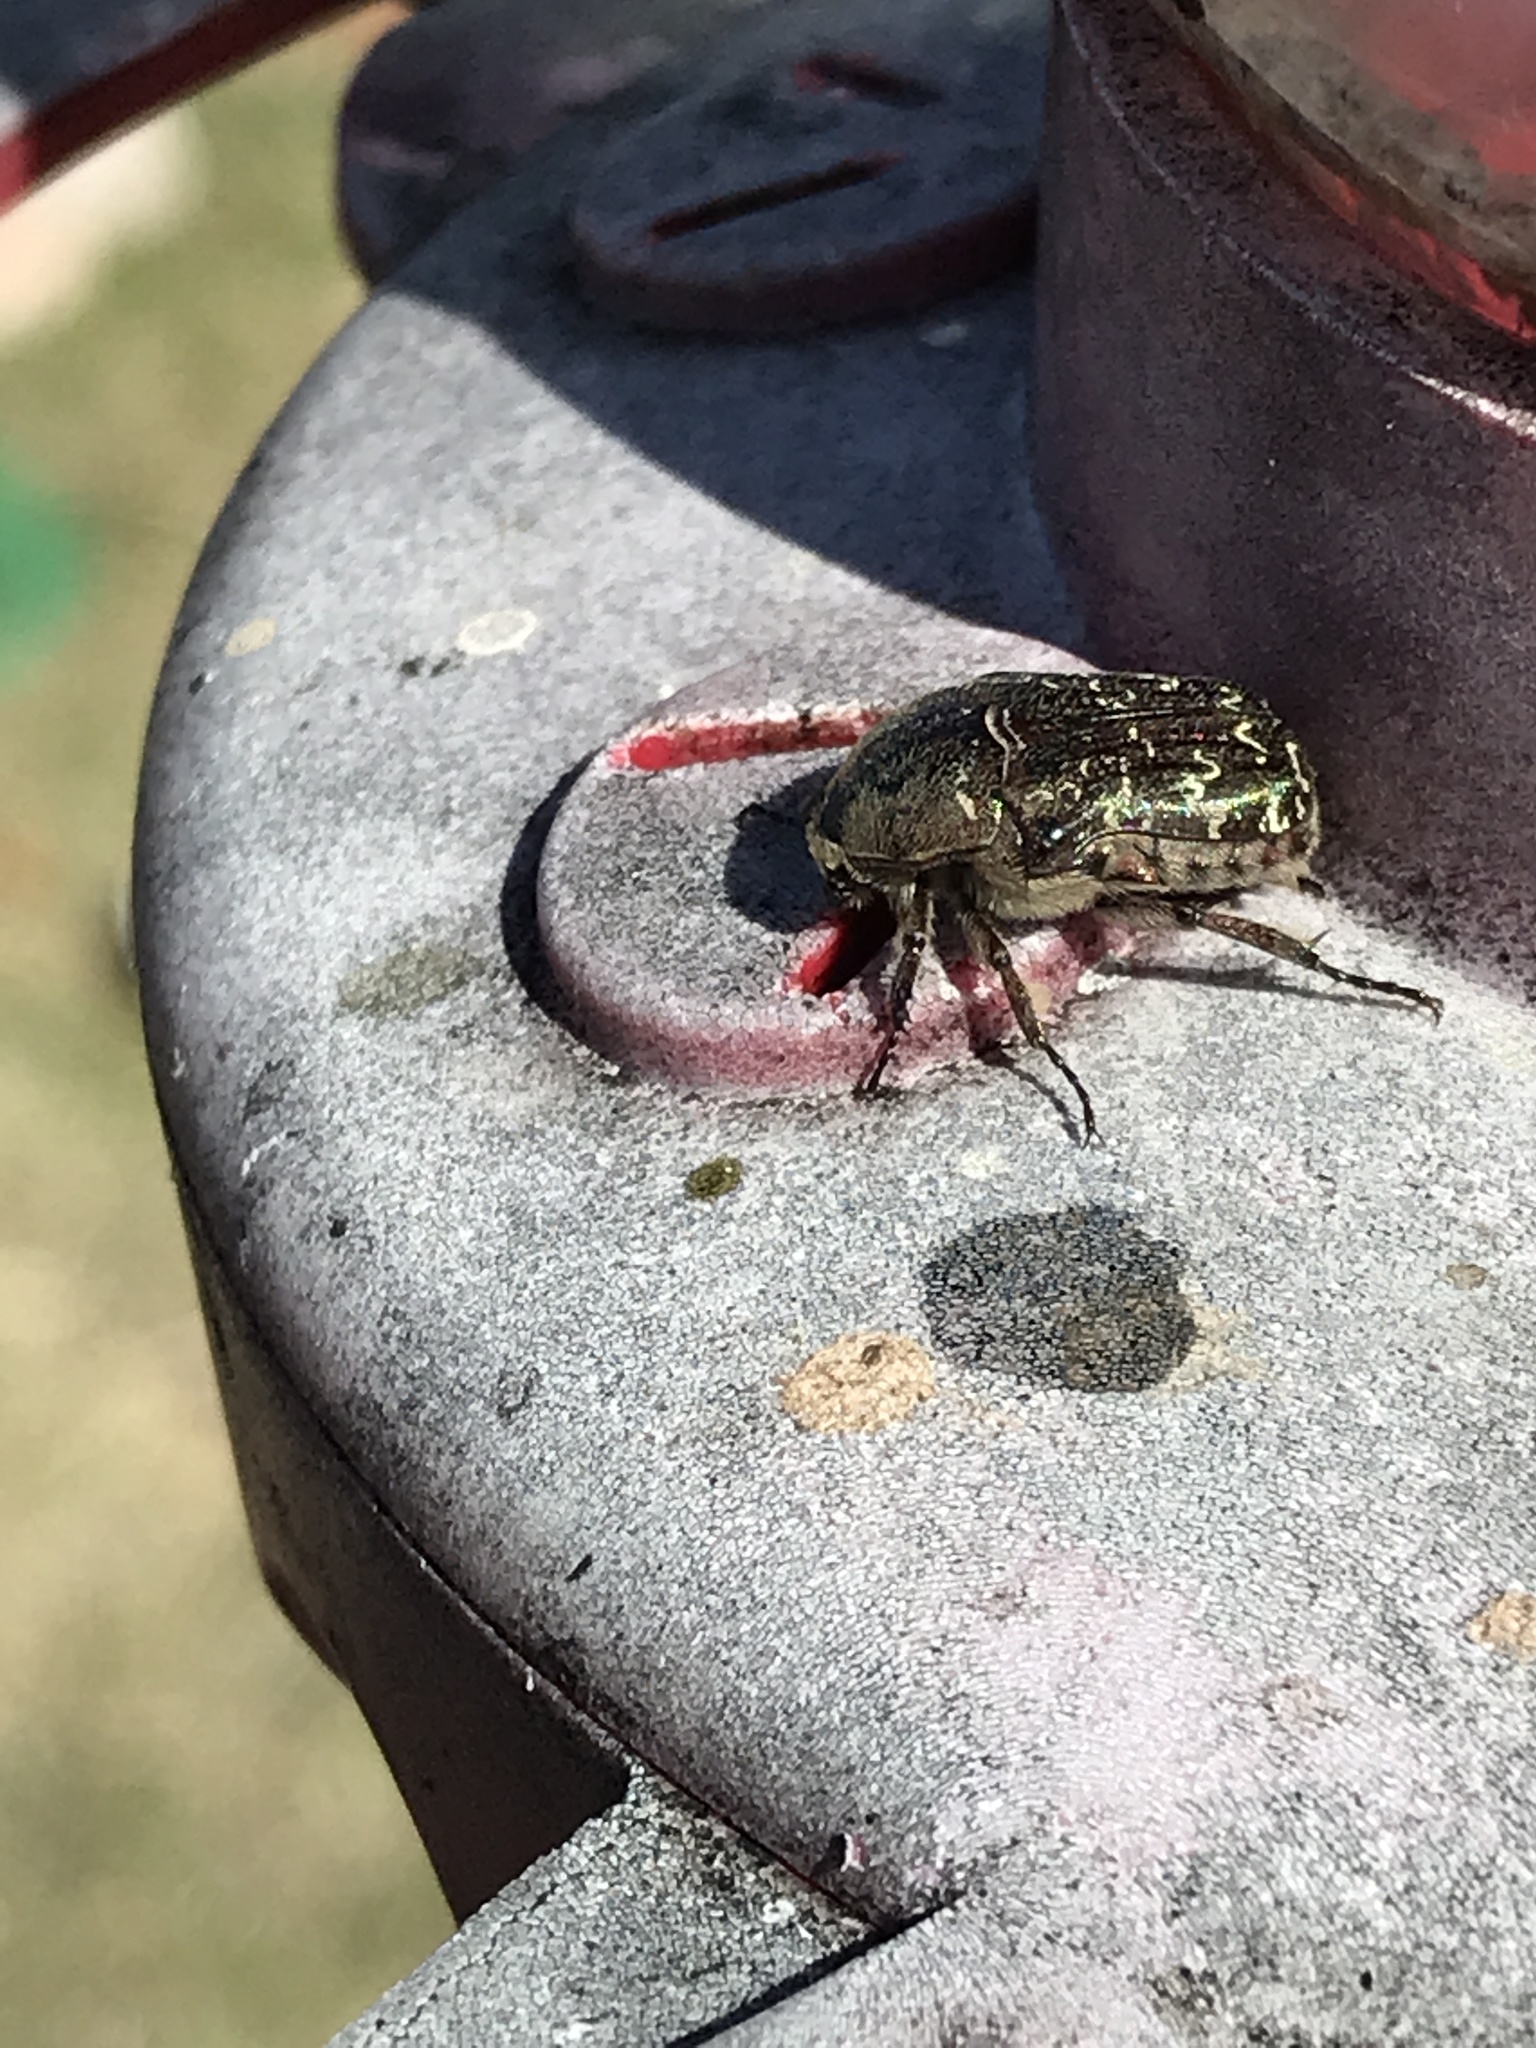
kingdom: Animalia
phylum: Arthropoda
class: Insecta
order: Coleoptera
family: Scarabaeidae
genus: Euphoria
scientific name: Euphoria sepulcralis
